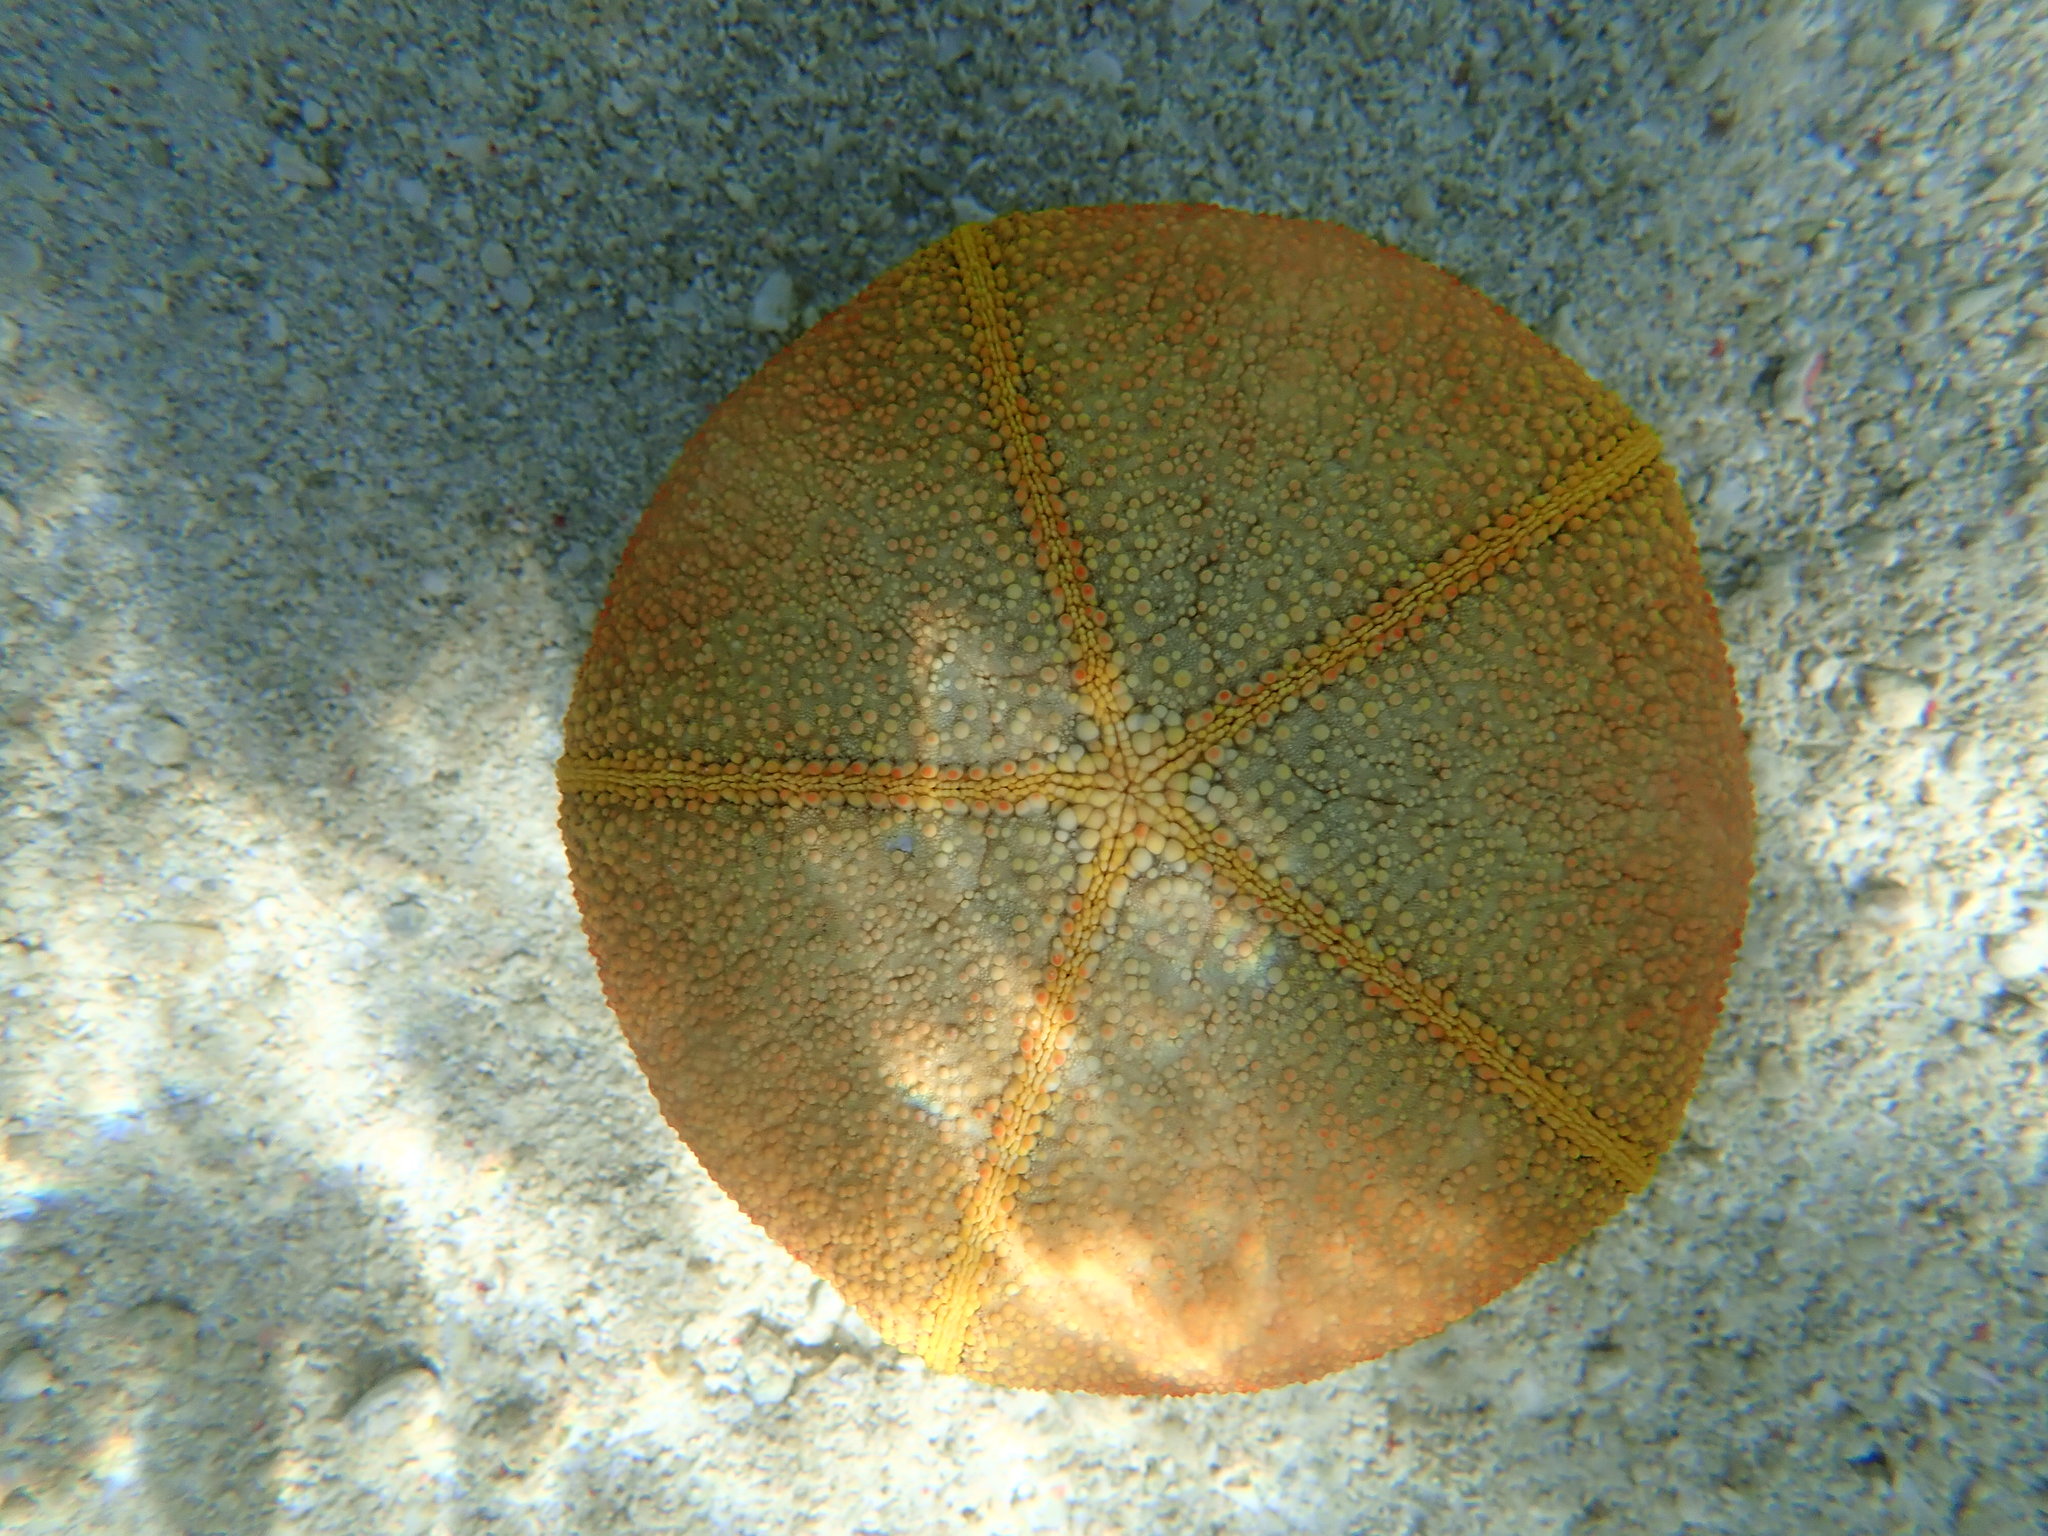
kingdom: Animalia
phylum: Echinodermata
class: Asteroidea
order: Valvatida
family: Oreasteridae
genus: Culcita
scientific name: Culcita novaeguineae
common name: Cushion star
